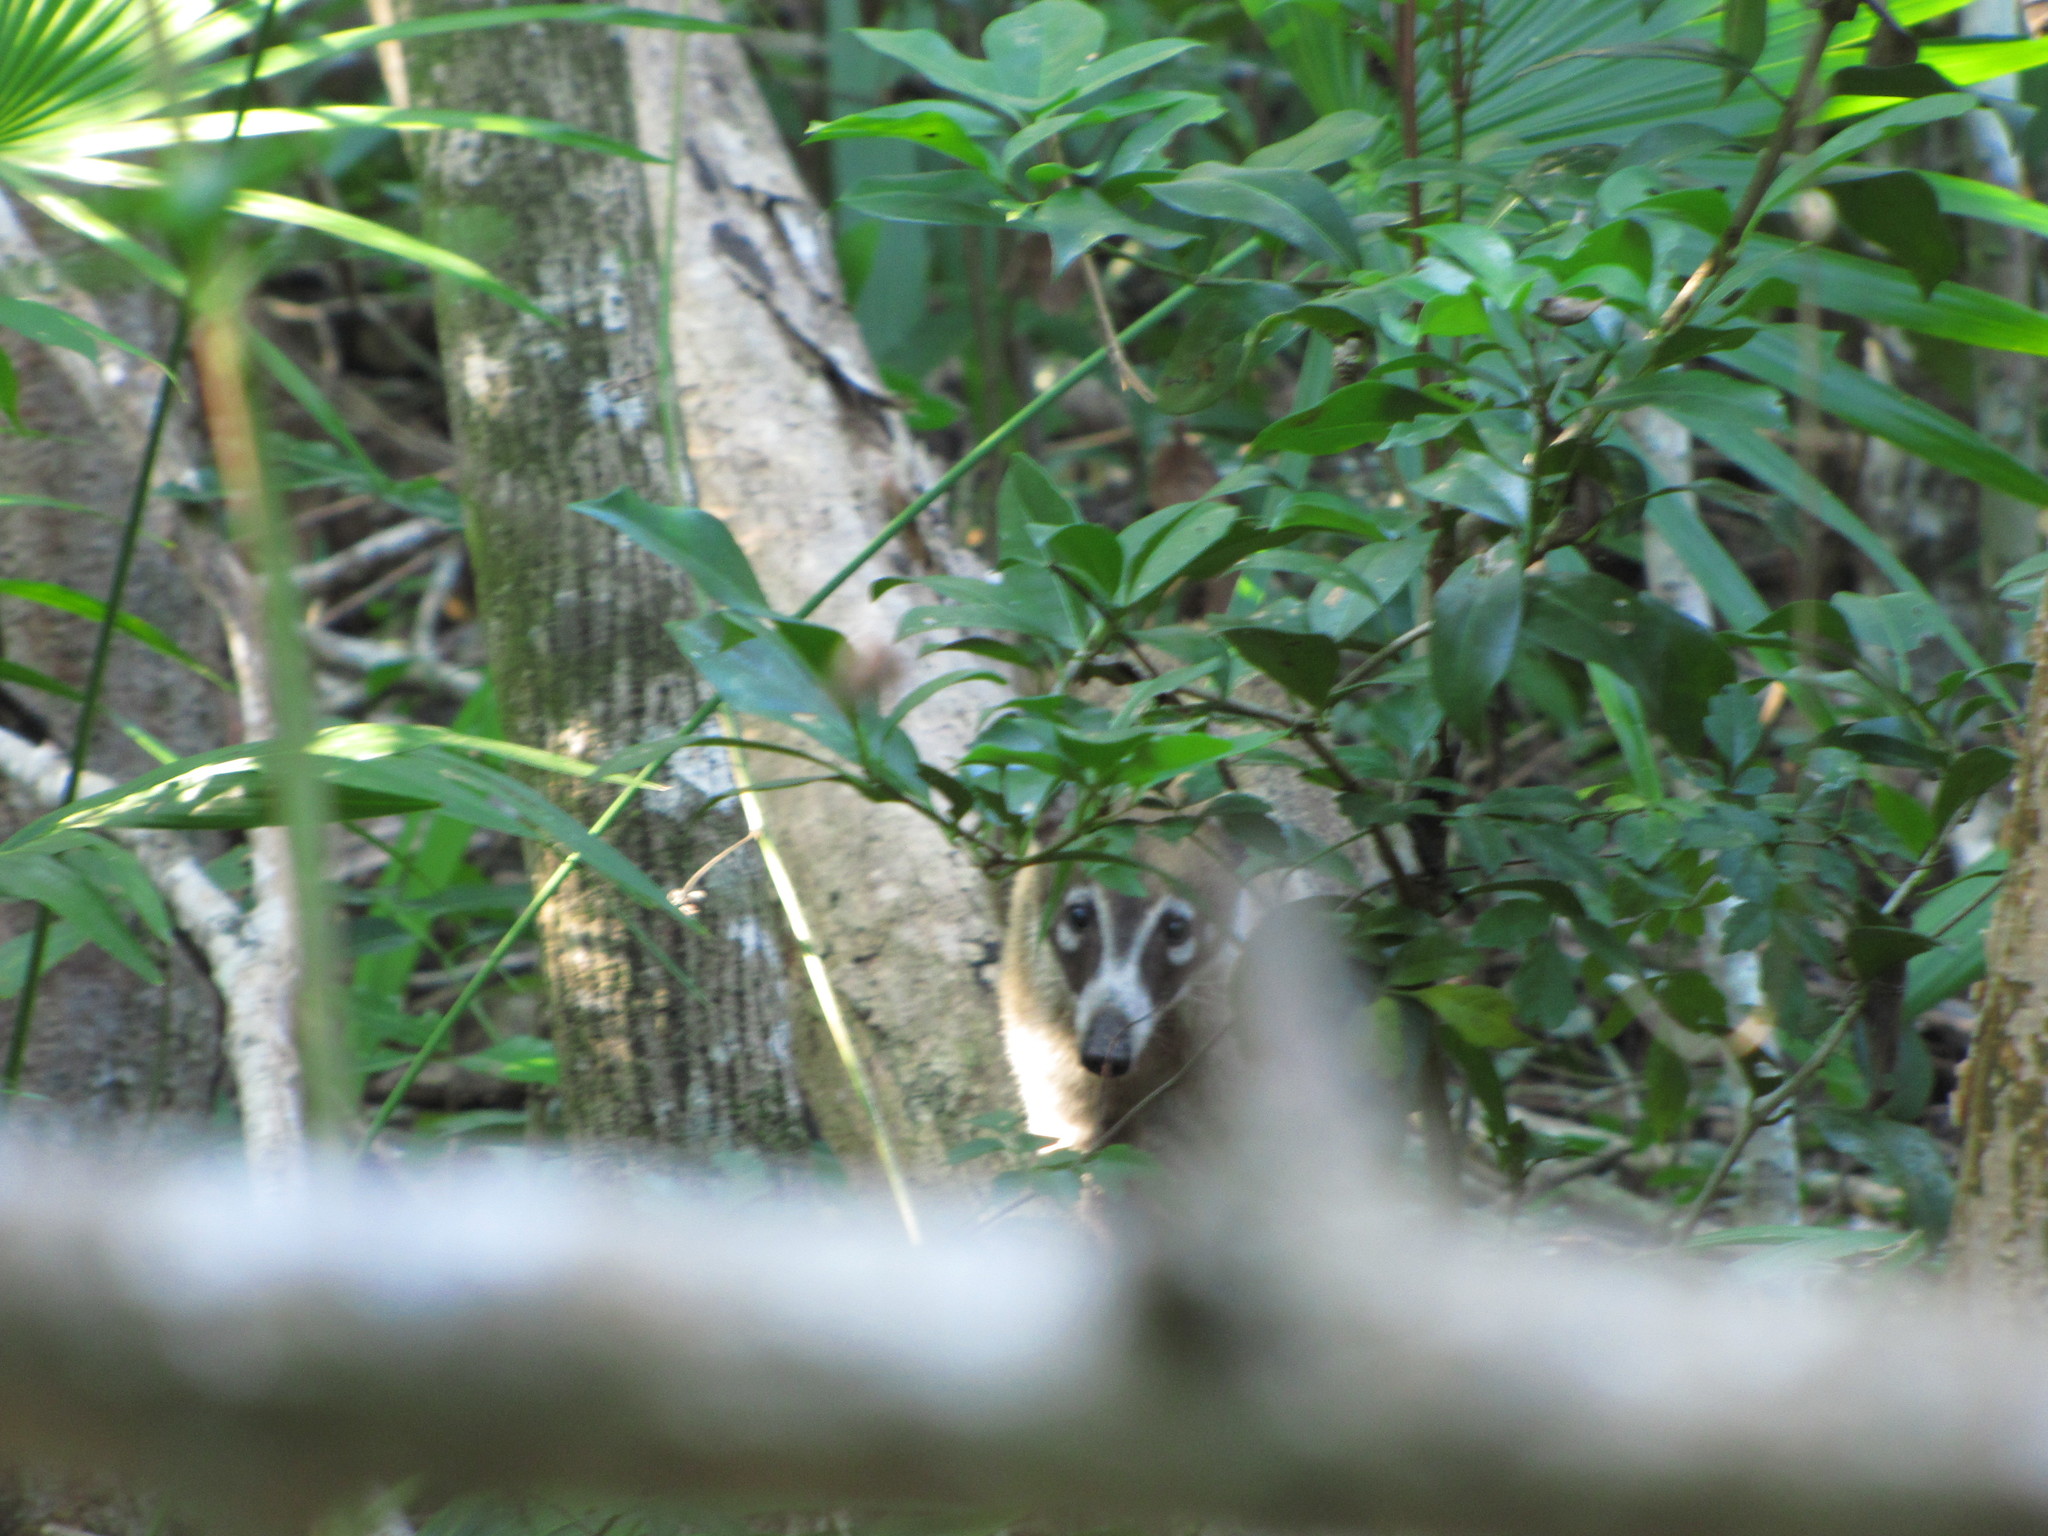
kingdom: Animalia
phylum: Chordata
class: Mammalia
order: Carnivora
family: Procyonidae
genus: Nasua
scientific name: Nasua narica
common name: White-nosed coati
